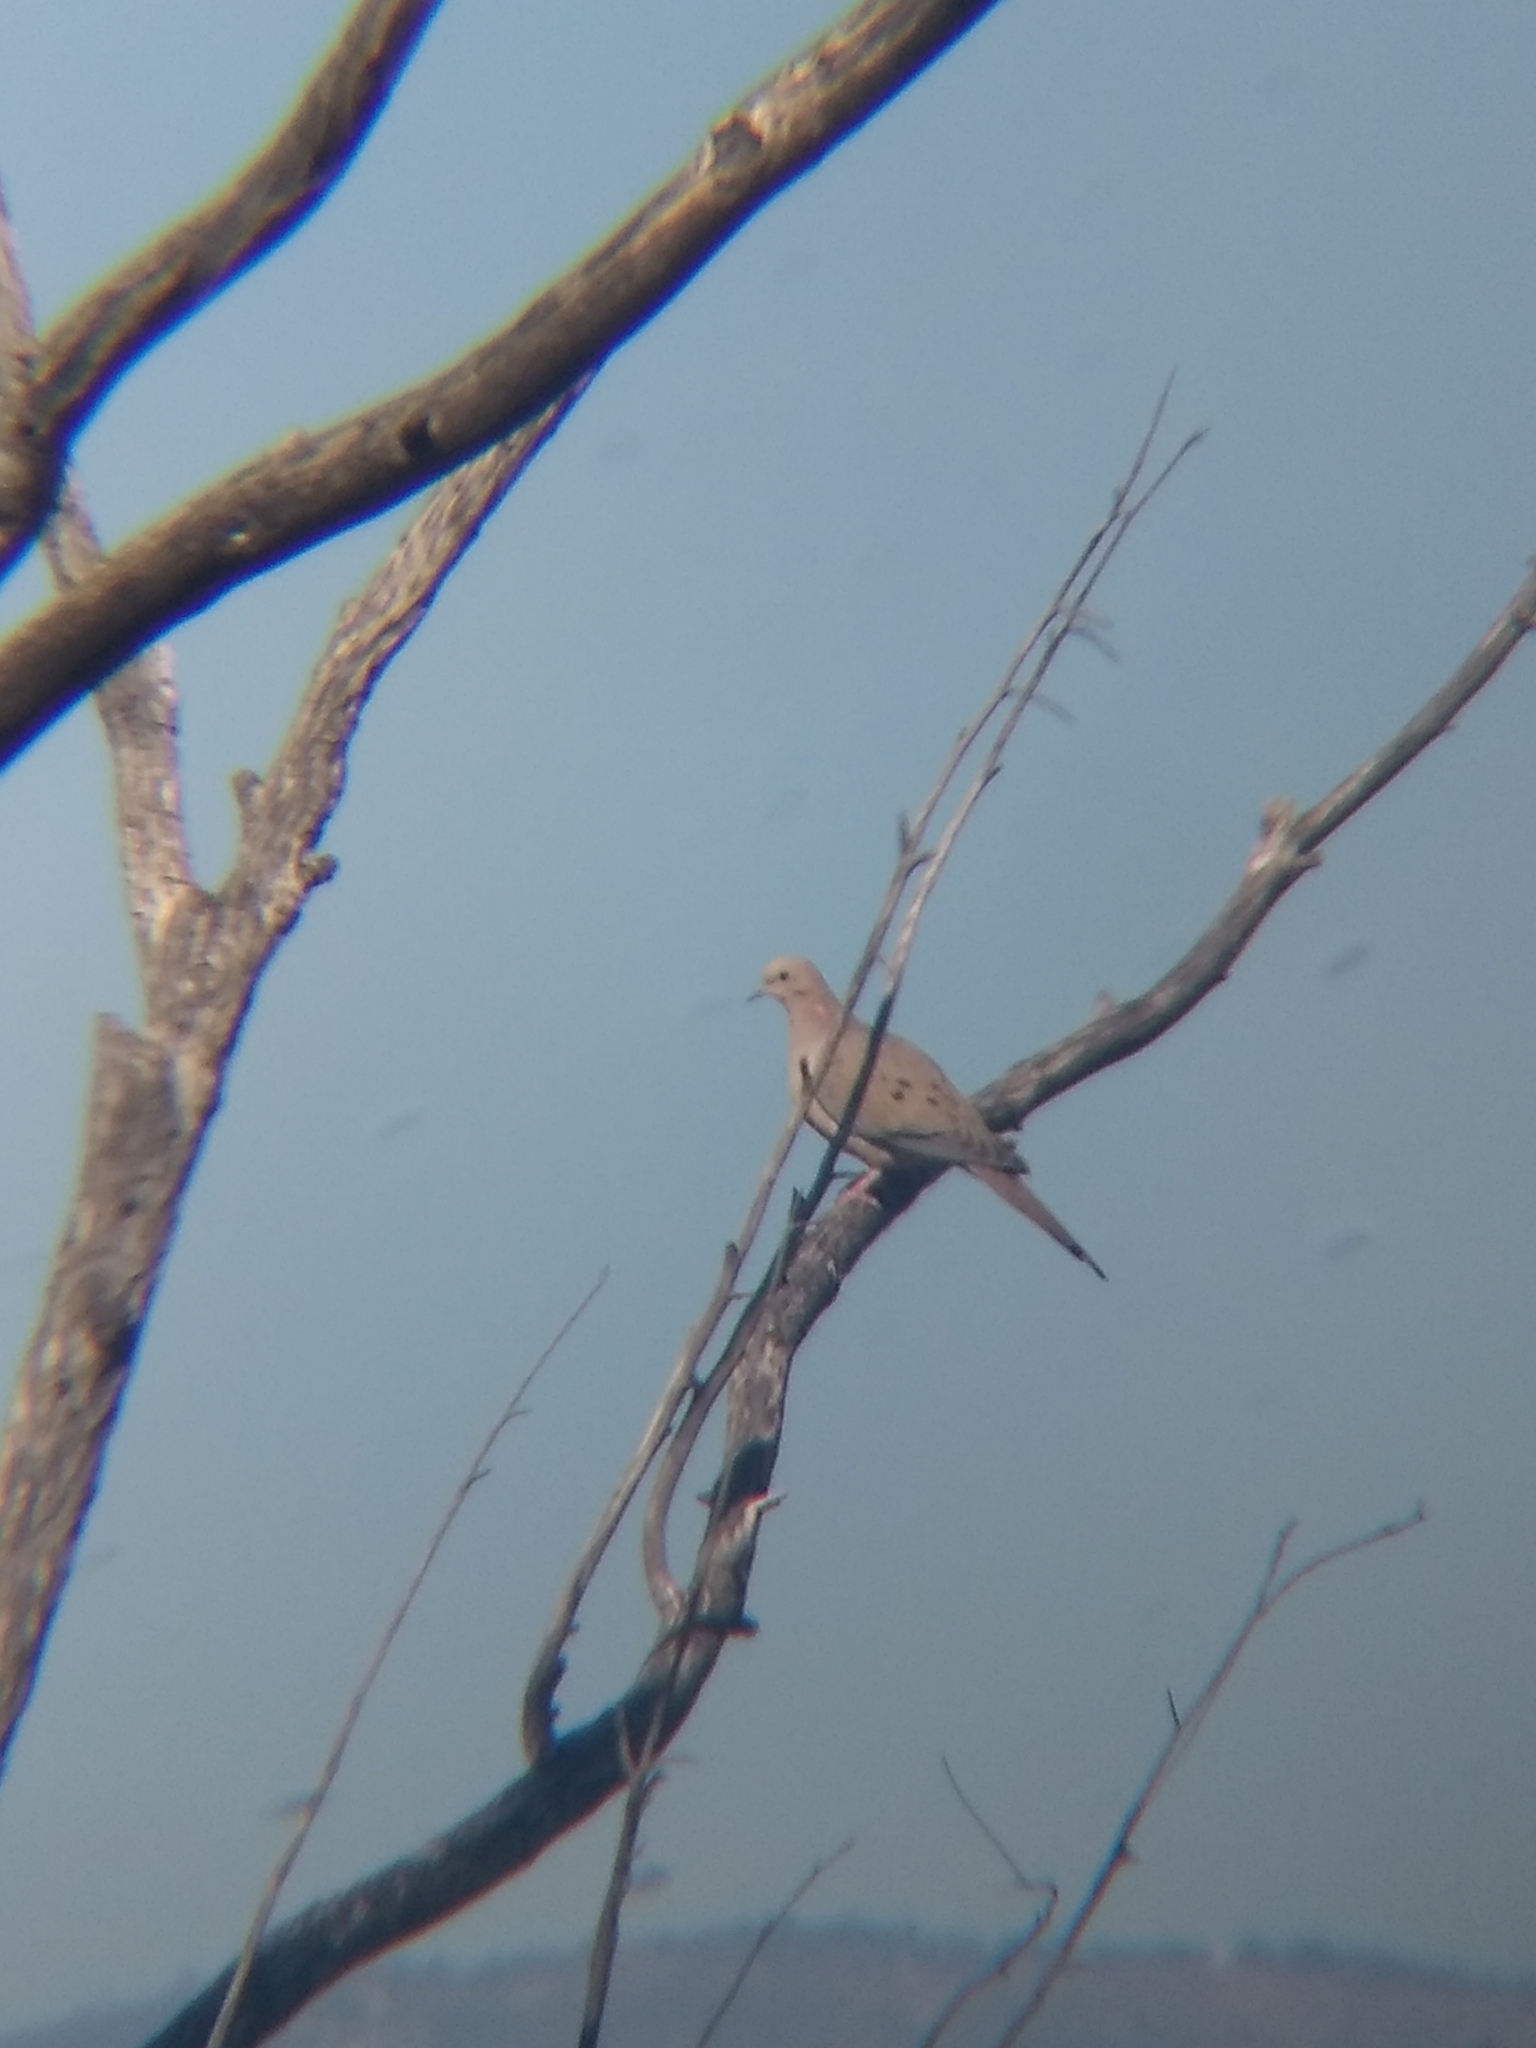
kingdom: Animalia
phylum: Chordata
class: Aves
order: Columbiformes
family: Columbidae
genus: Zenaida
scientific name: Zenaida macroura
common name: Mourning dove
